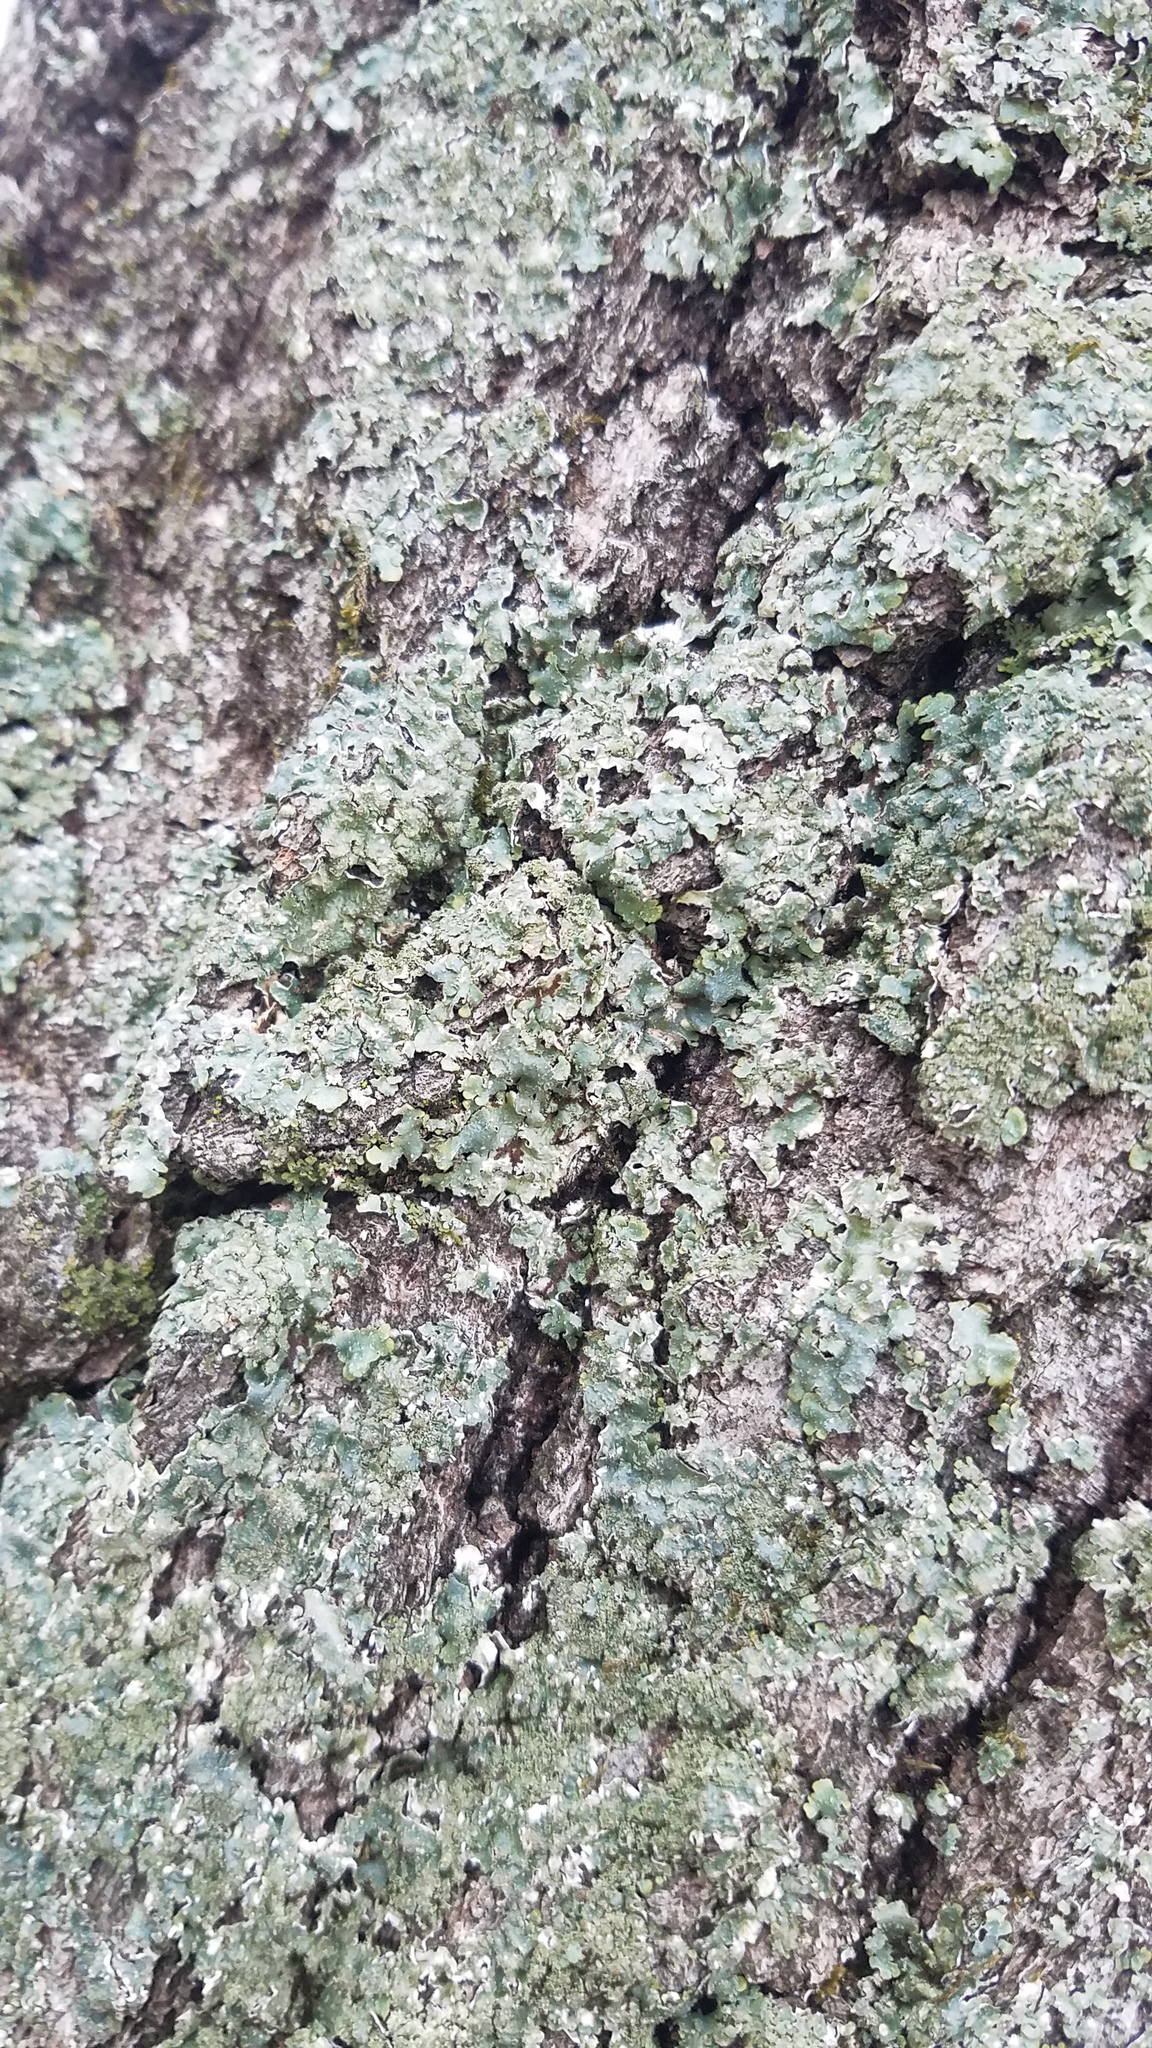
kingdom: Fungi
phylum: Ascomycota
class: Lecanoromycetes
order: Lecanorales
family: Parmeliaceae
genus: Punctelia
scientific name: Punctelia
